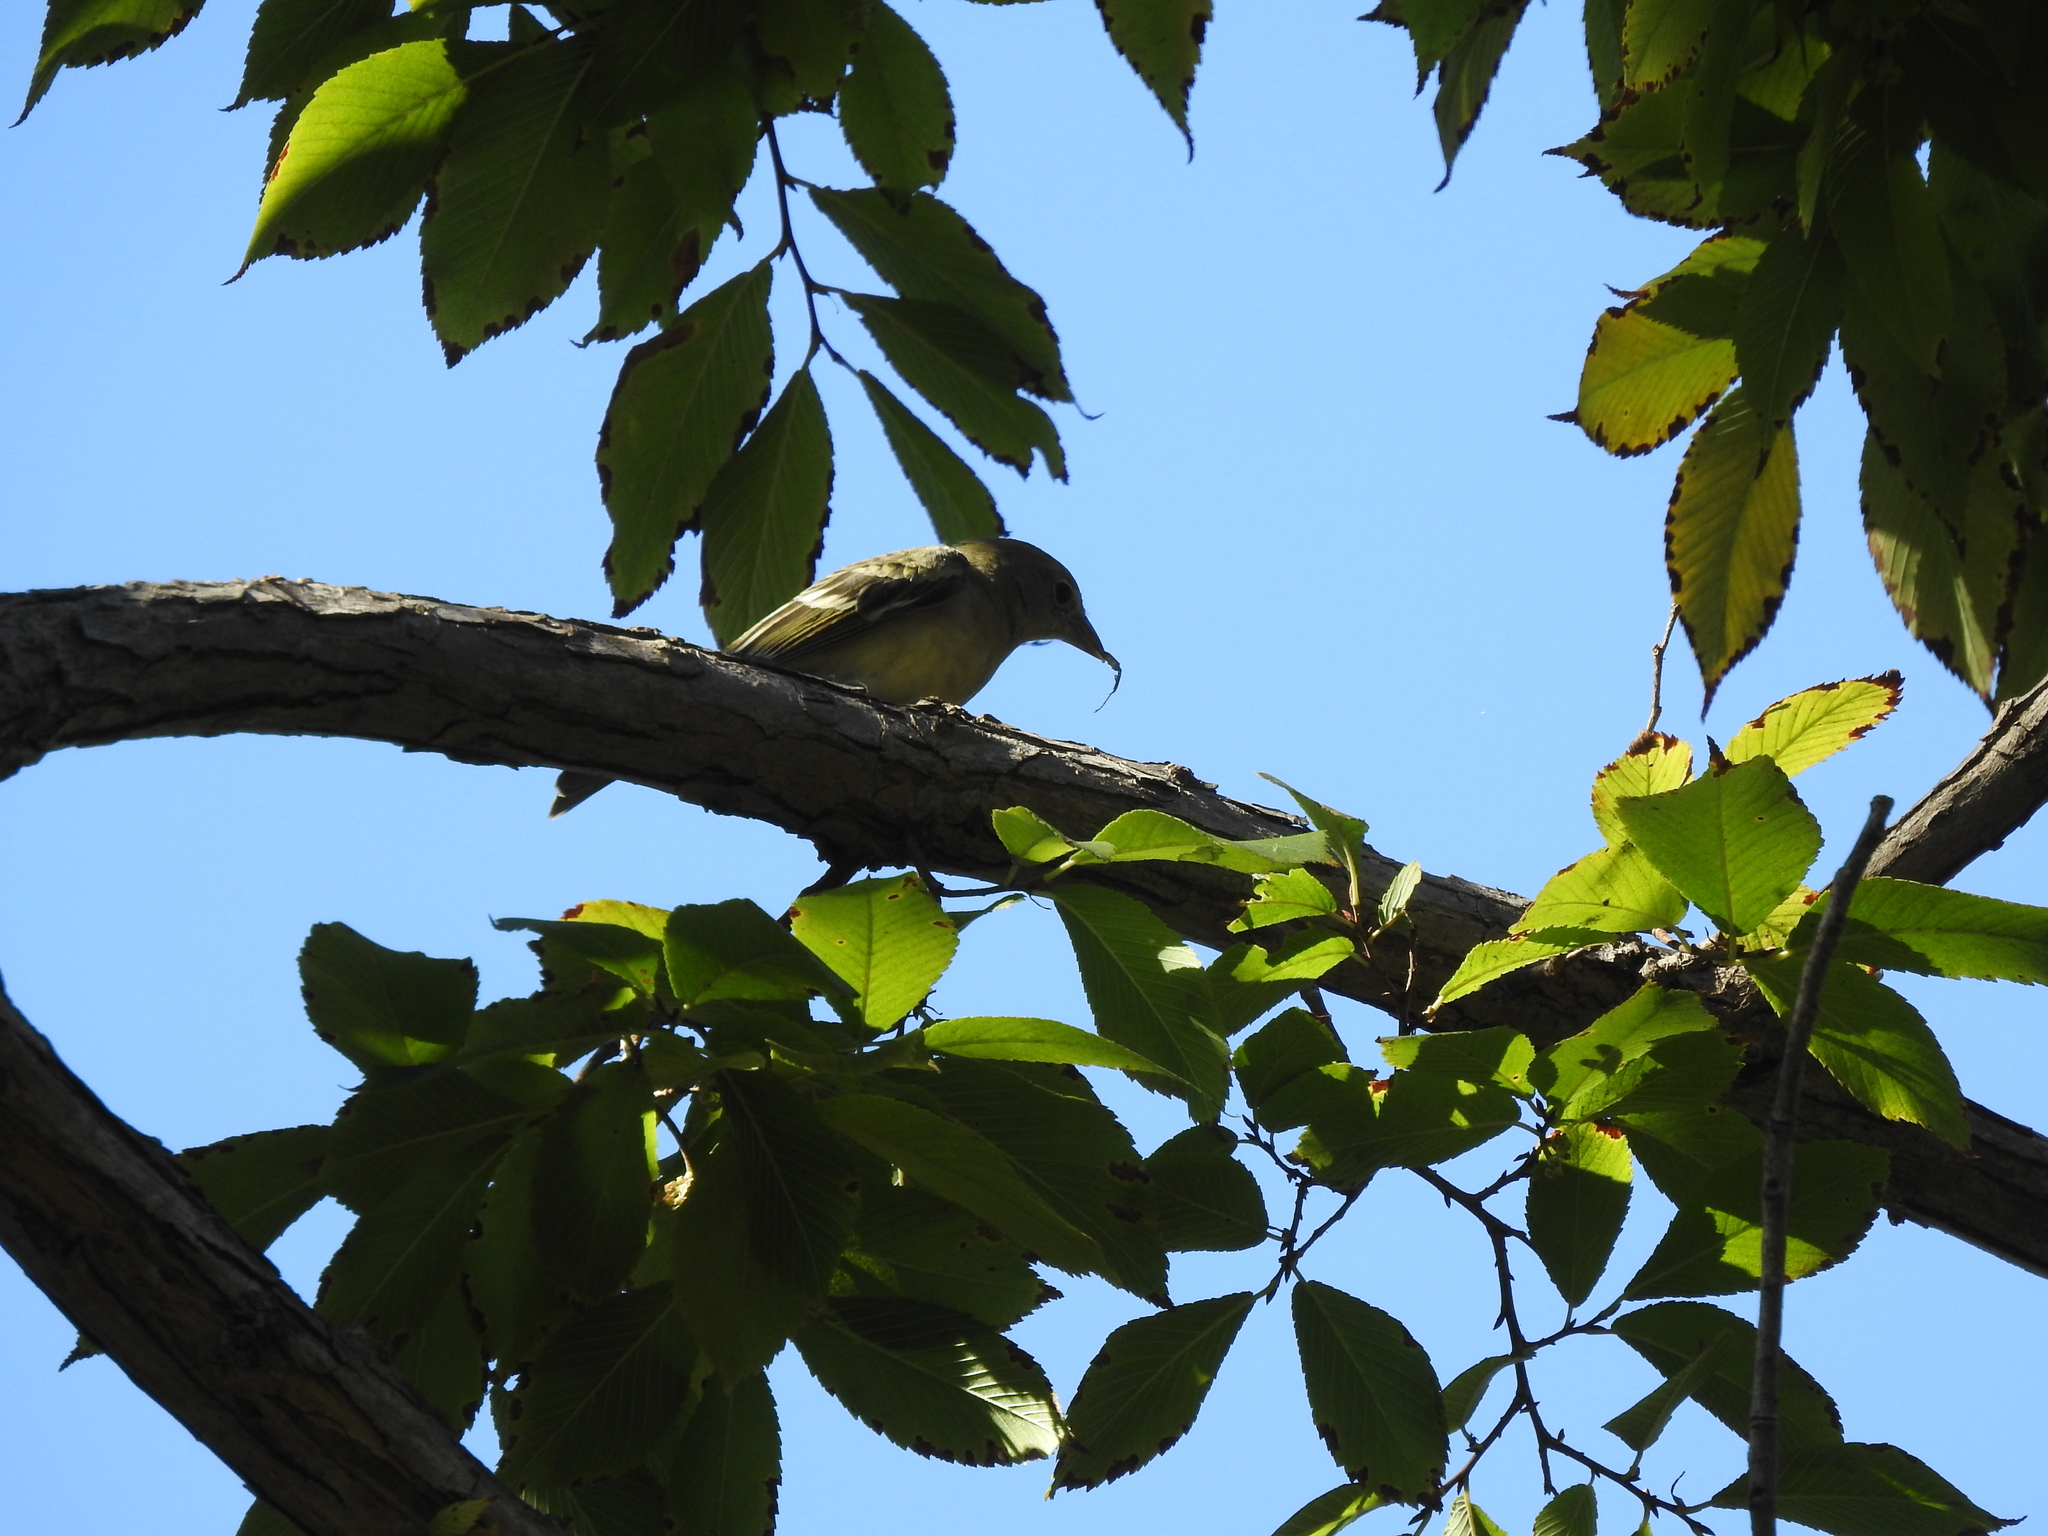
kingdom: Animalia
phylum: Chordata
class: Aves
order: Passeriformes
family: Cardinalidae
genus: Piranga
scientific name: Piranga ludoviciana
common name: Western tanager
